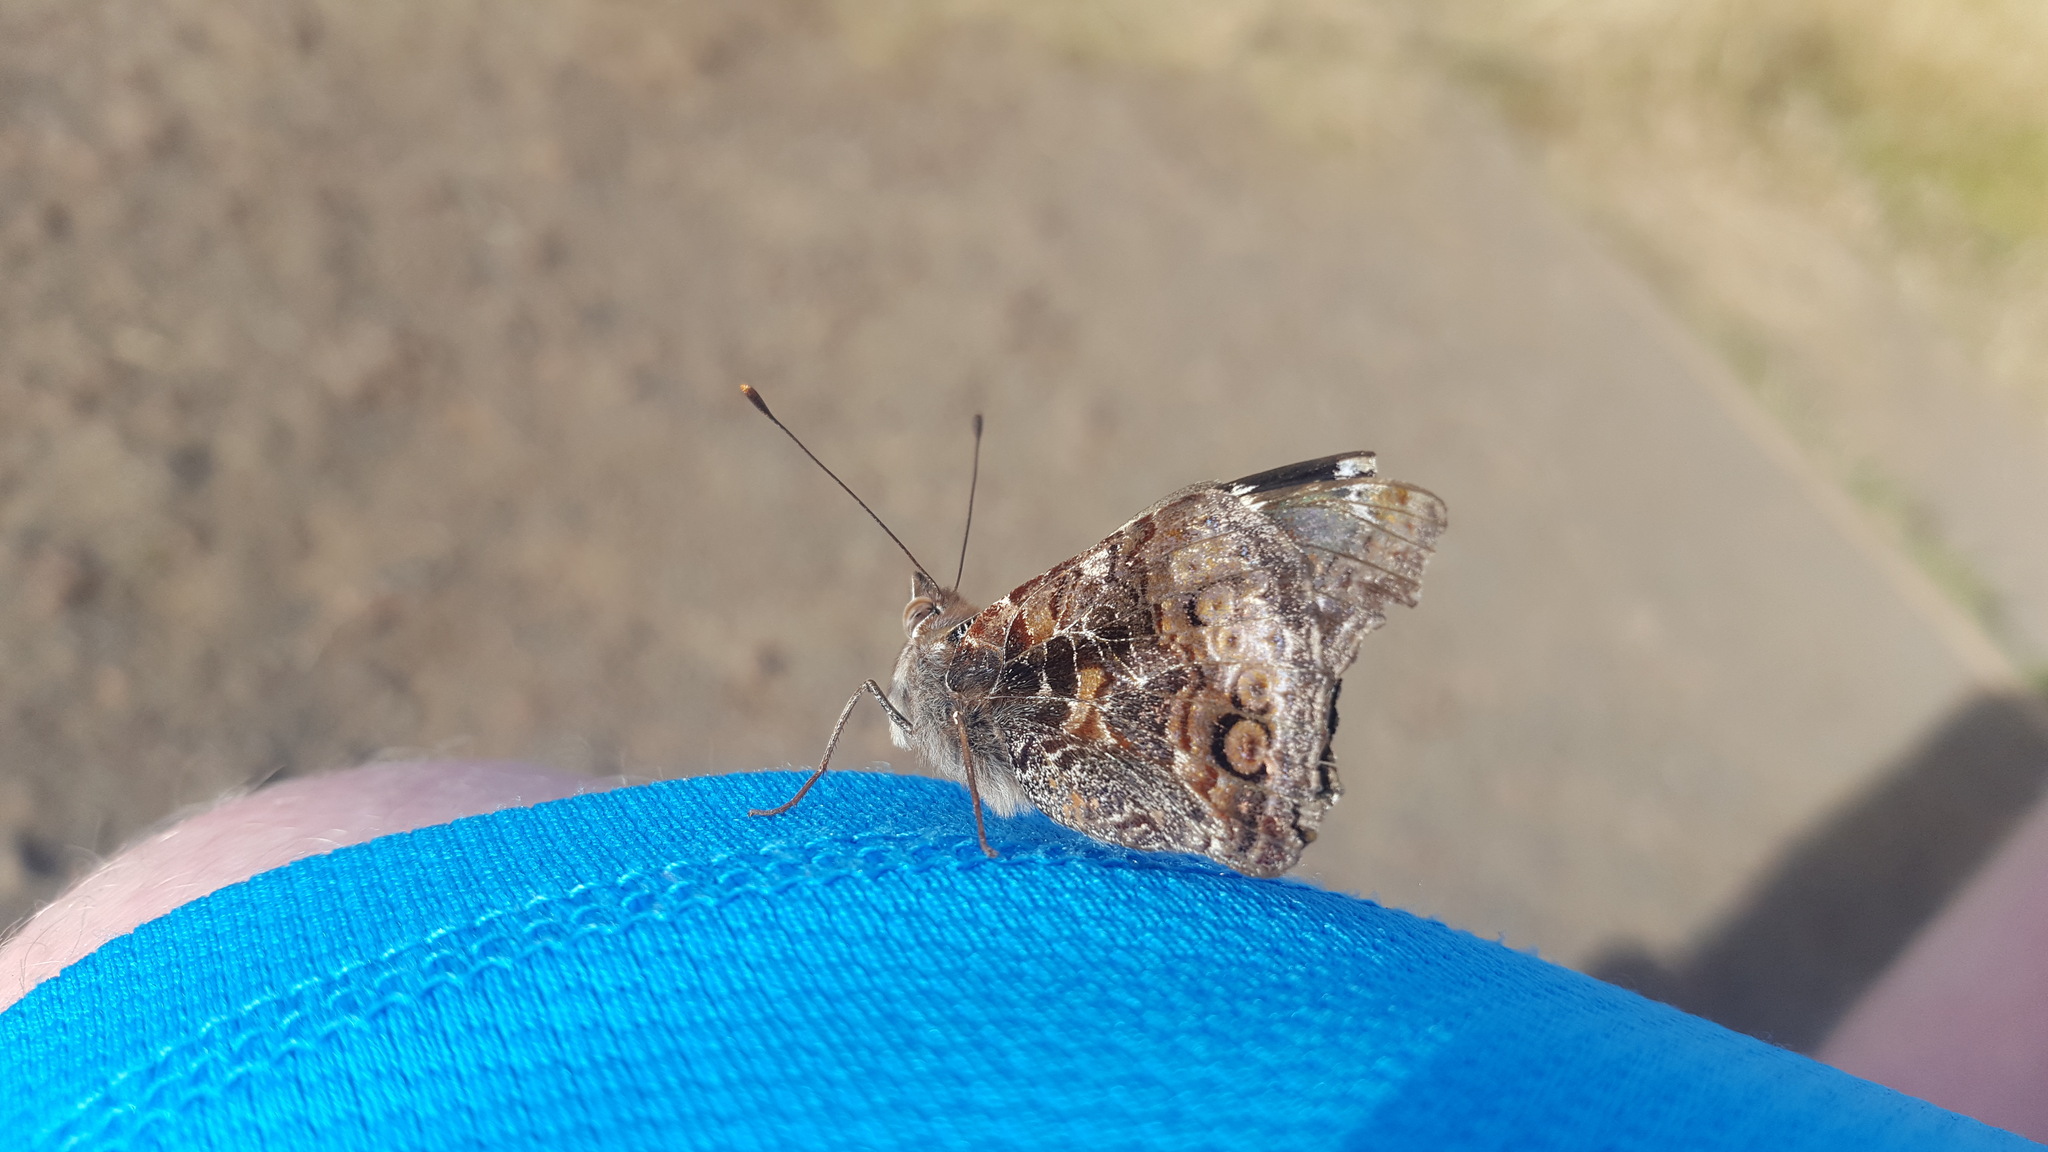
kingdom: Animalia
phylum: Arthropoda
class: Insecta
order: Lepidoptera
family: Nymphalidae
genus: Vanessa
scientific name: Vanessa itea
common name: Yellow admiral
